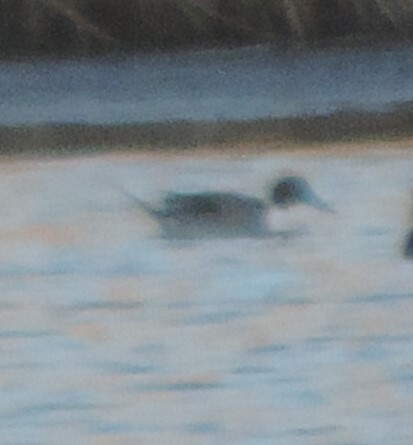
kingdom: Animalia
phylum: Chordata
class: Aves
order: Anseriformes
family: Anatidae
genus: Anas
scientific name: Anas acuta
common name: Northern pintail
